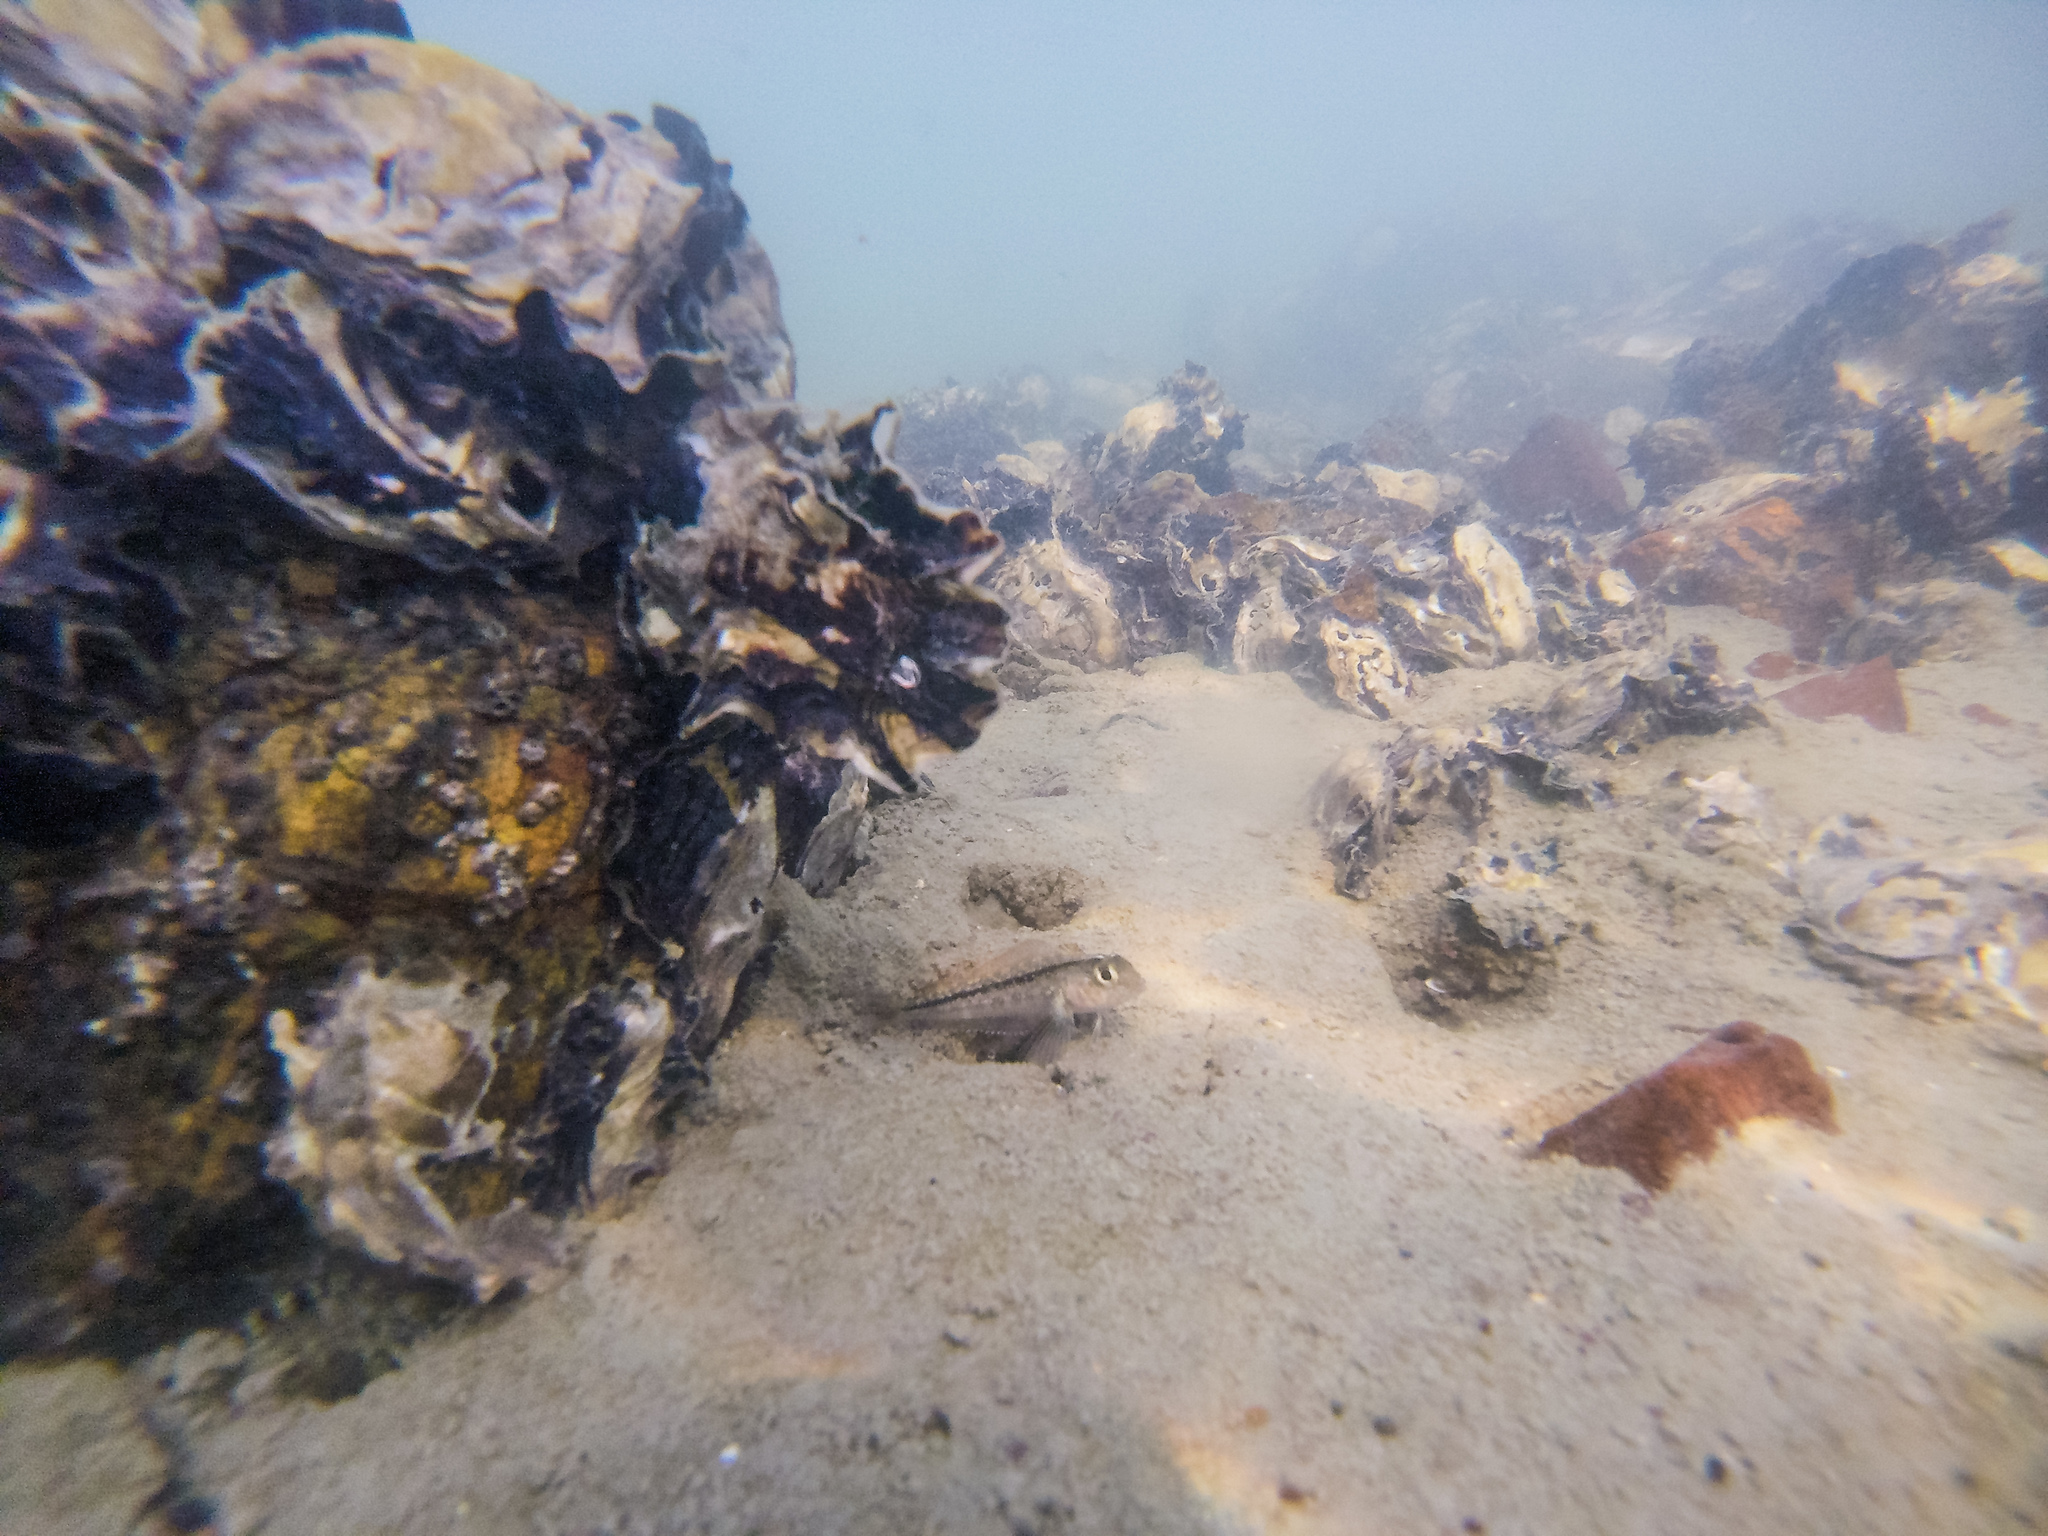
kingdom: Animalia
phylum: Chordata
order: Perciformes
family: Tripterygiidae
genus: Forsterygion
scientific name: Forsterygion lapillum
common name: Common triplefin
